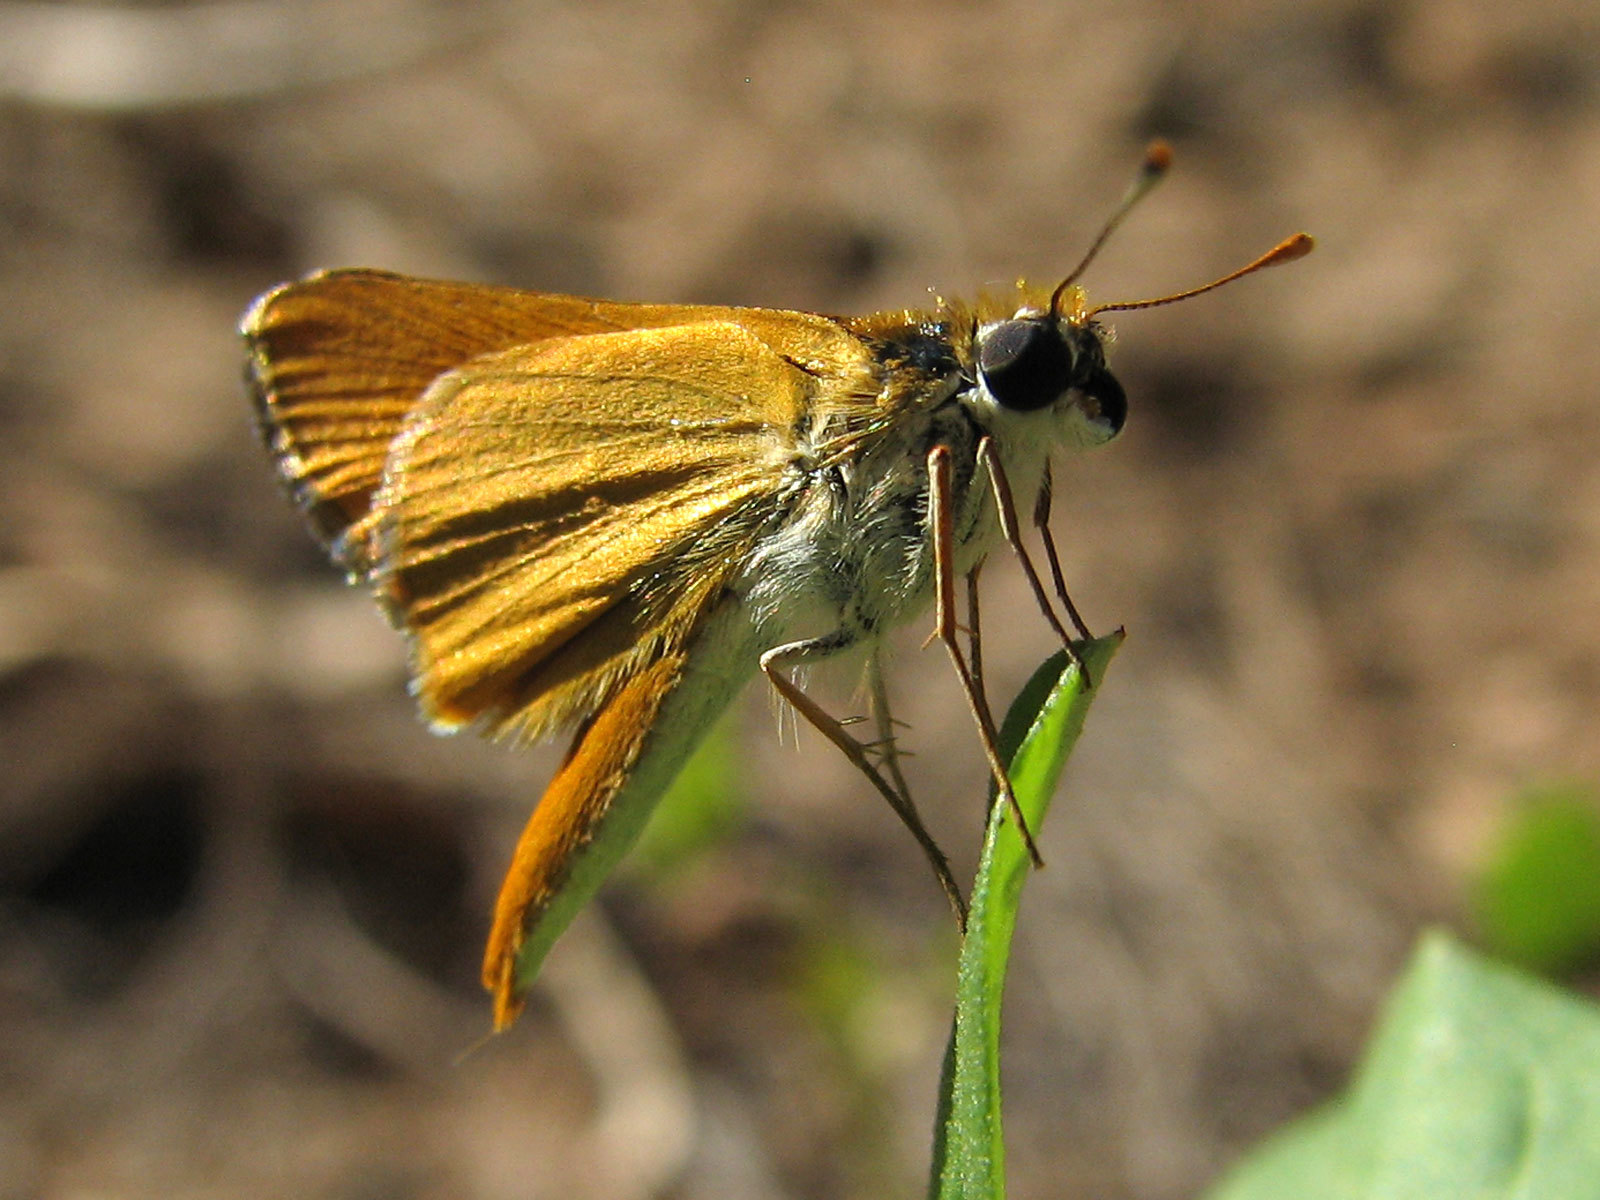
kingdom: Animalia
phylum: Arthropoda
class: Insecta
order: Lepidoptera
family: Hesperiidae
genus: Copaeodes
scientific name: Copaeodes aurantiaca
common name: Orange skipperling
